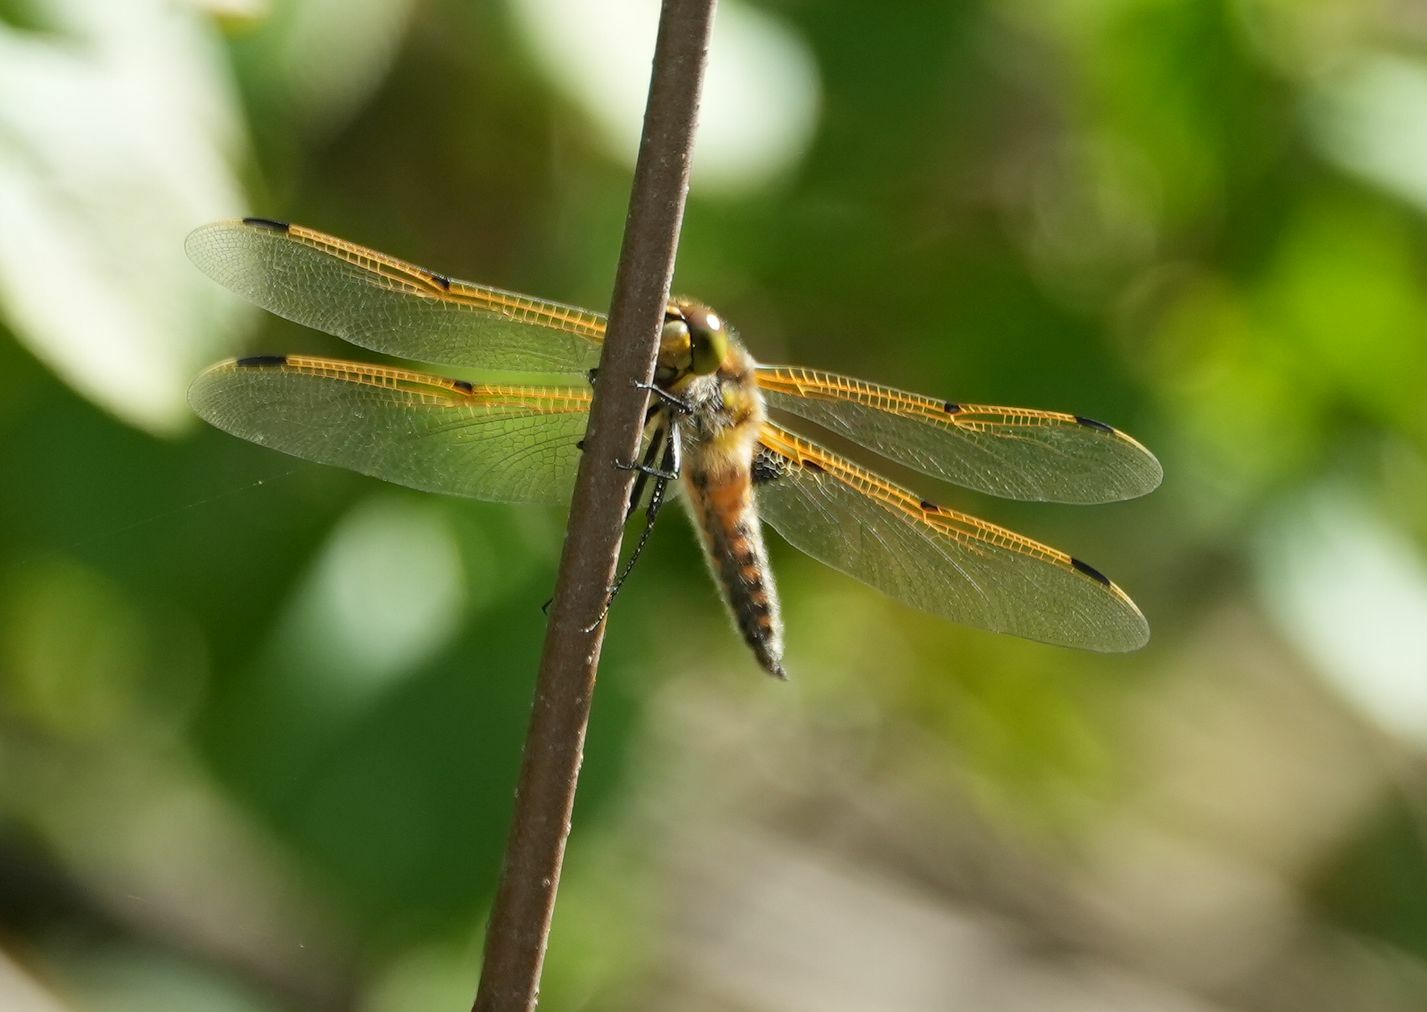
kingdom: Animalia
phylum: Arthropoda
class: Insecta
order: Odonata
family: Libellulidae
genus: Libellula
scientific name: Libellula quadrimaculata
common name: Four-spotted chaser
